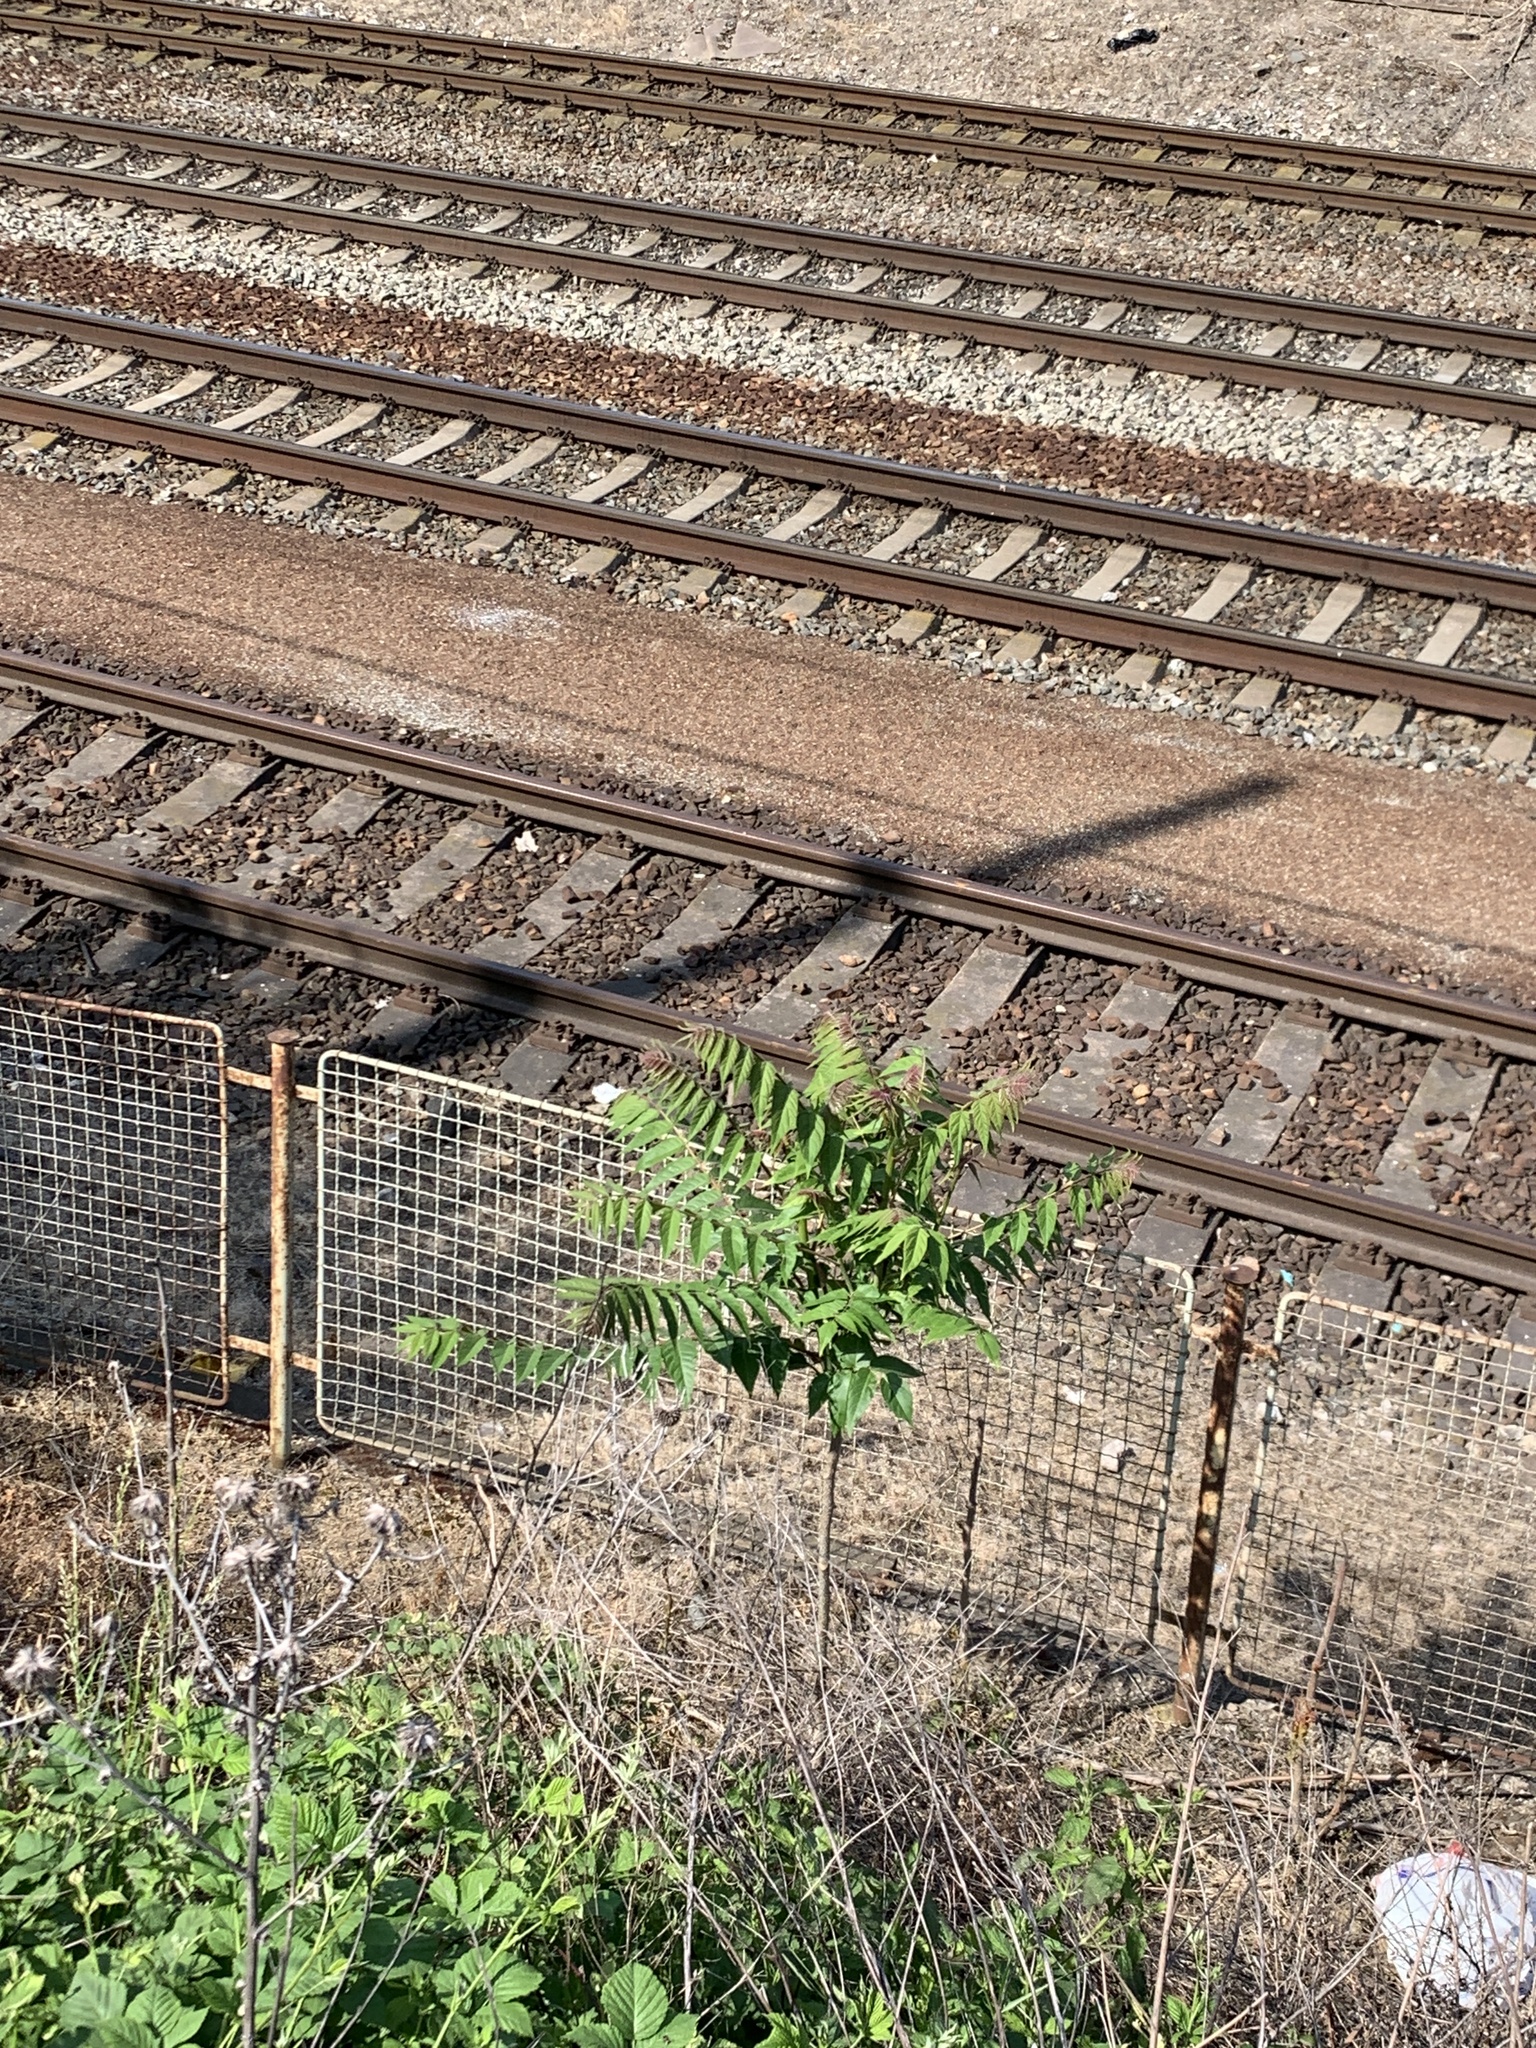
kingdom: Plantae
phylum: Tracheophyta
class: Magnoliopsida
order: Sapindales
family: Simaroubaceae
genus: Ailanthus
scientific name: Ailanthus altissima
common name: Tree-of-heaven
